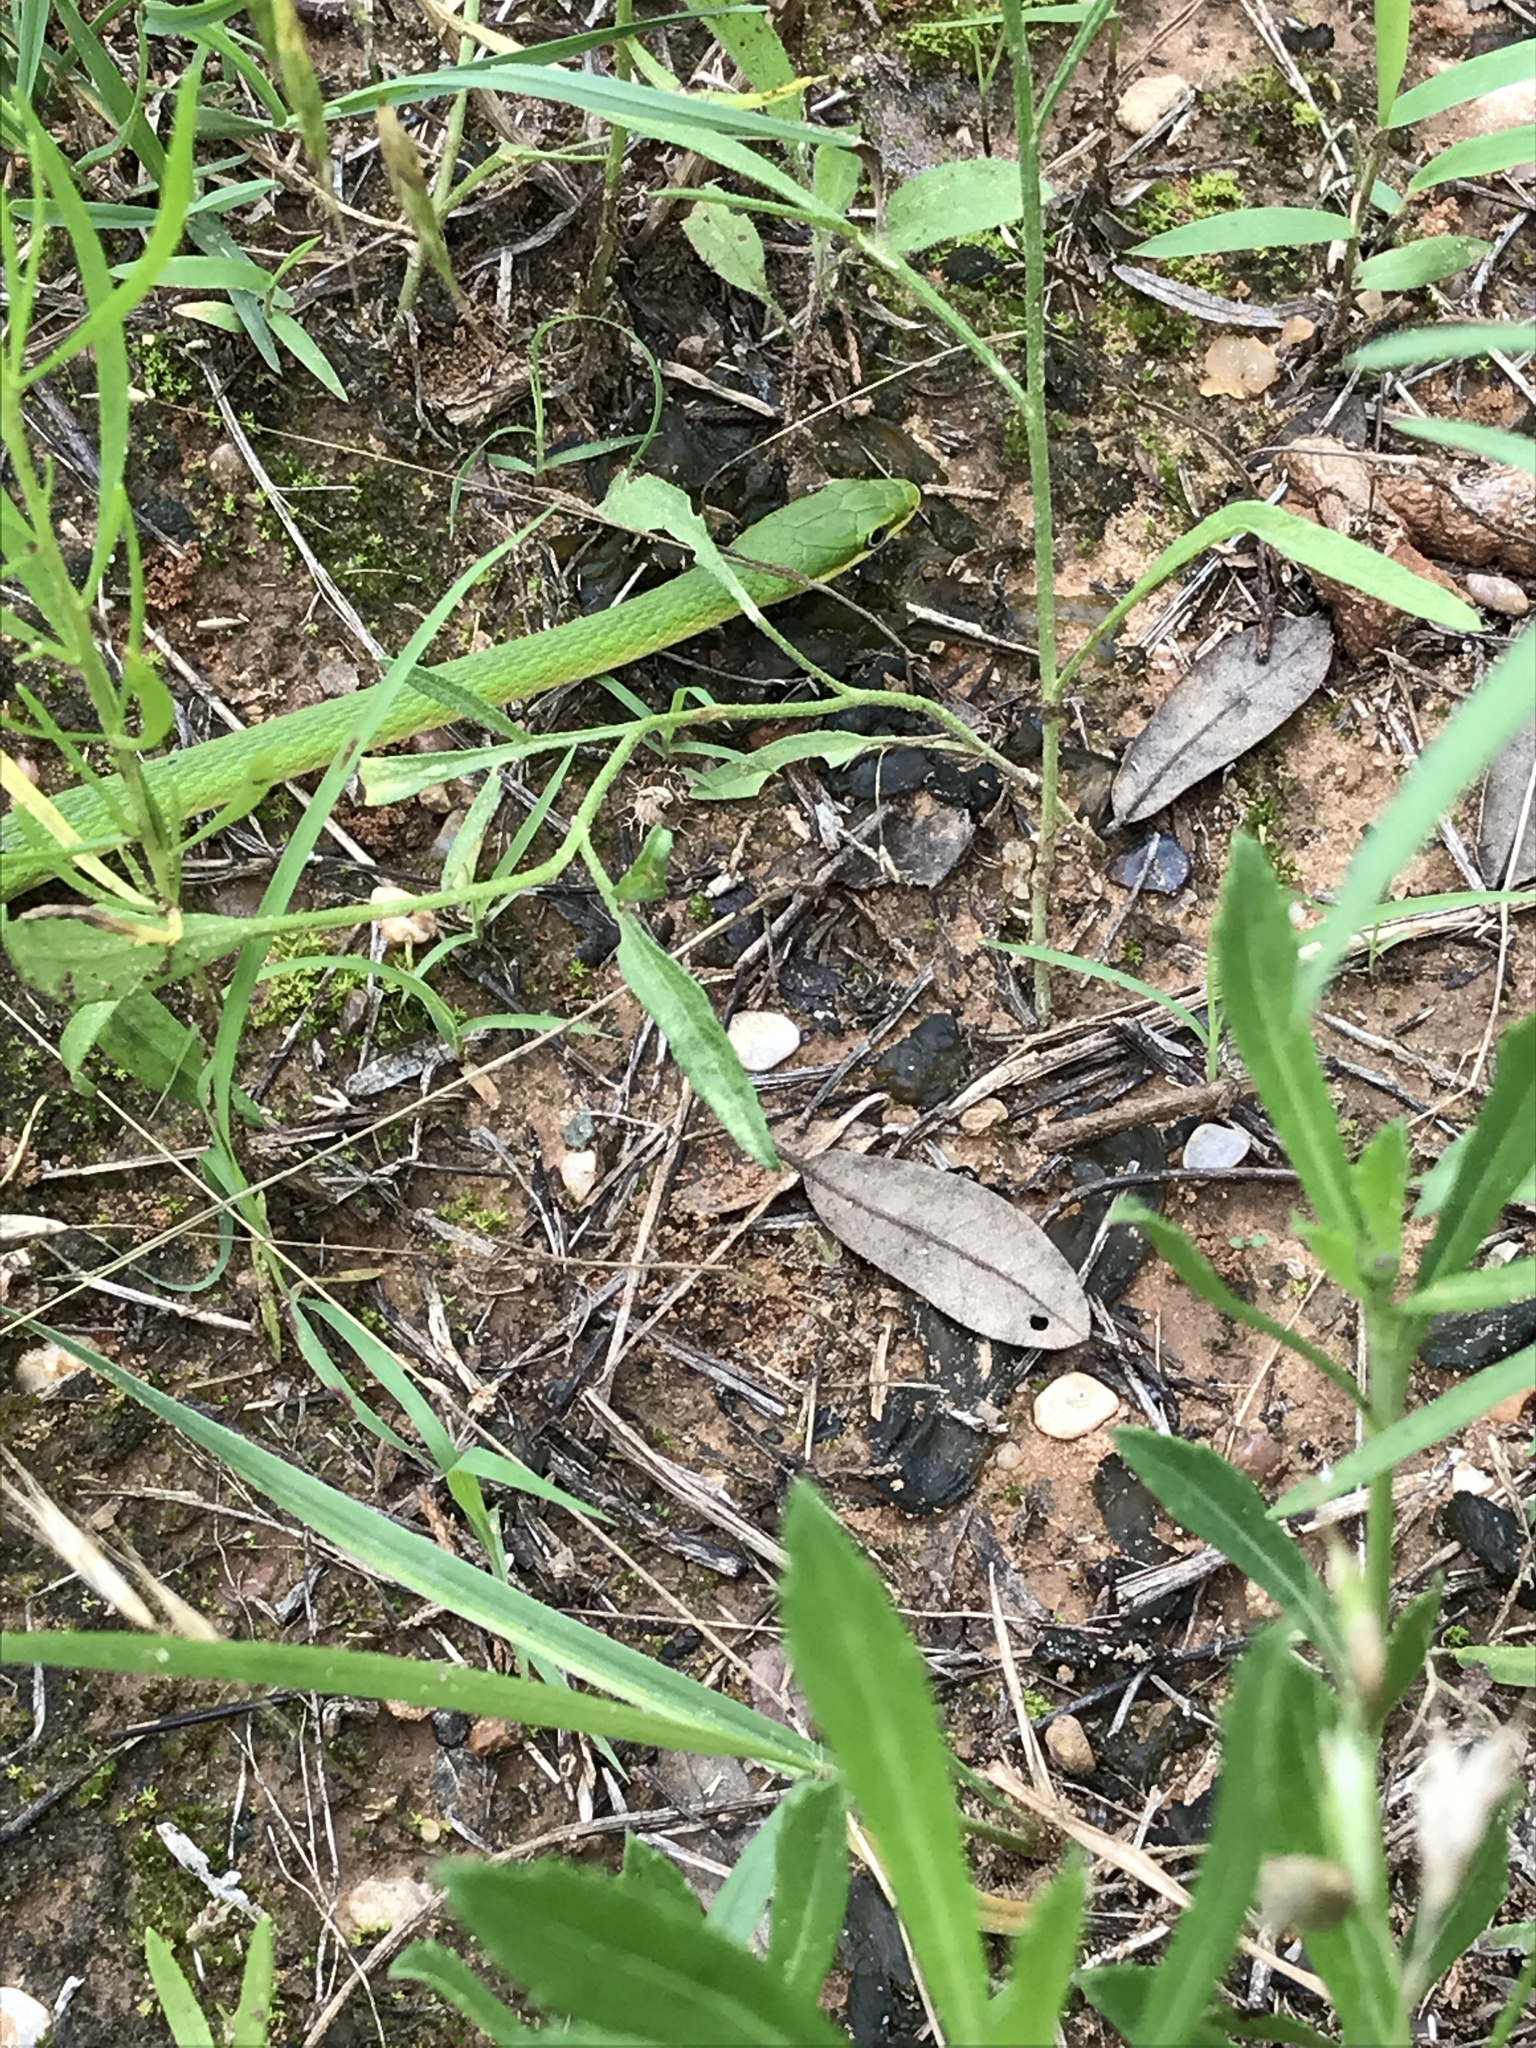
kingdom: Animalia
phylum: Chordata
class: Squamata
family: Colubridae
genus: Opheodrys
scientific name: Opheodrys aestivus
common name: Rough greensnake
